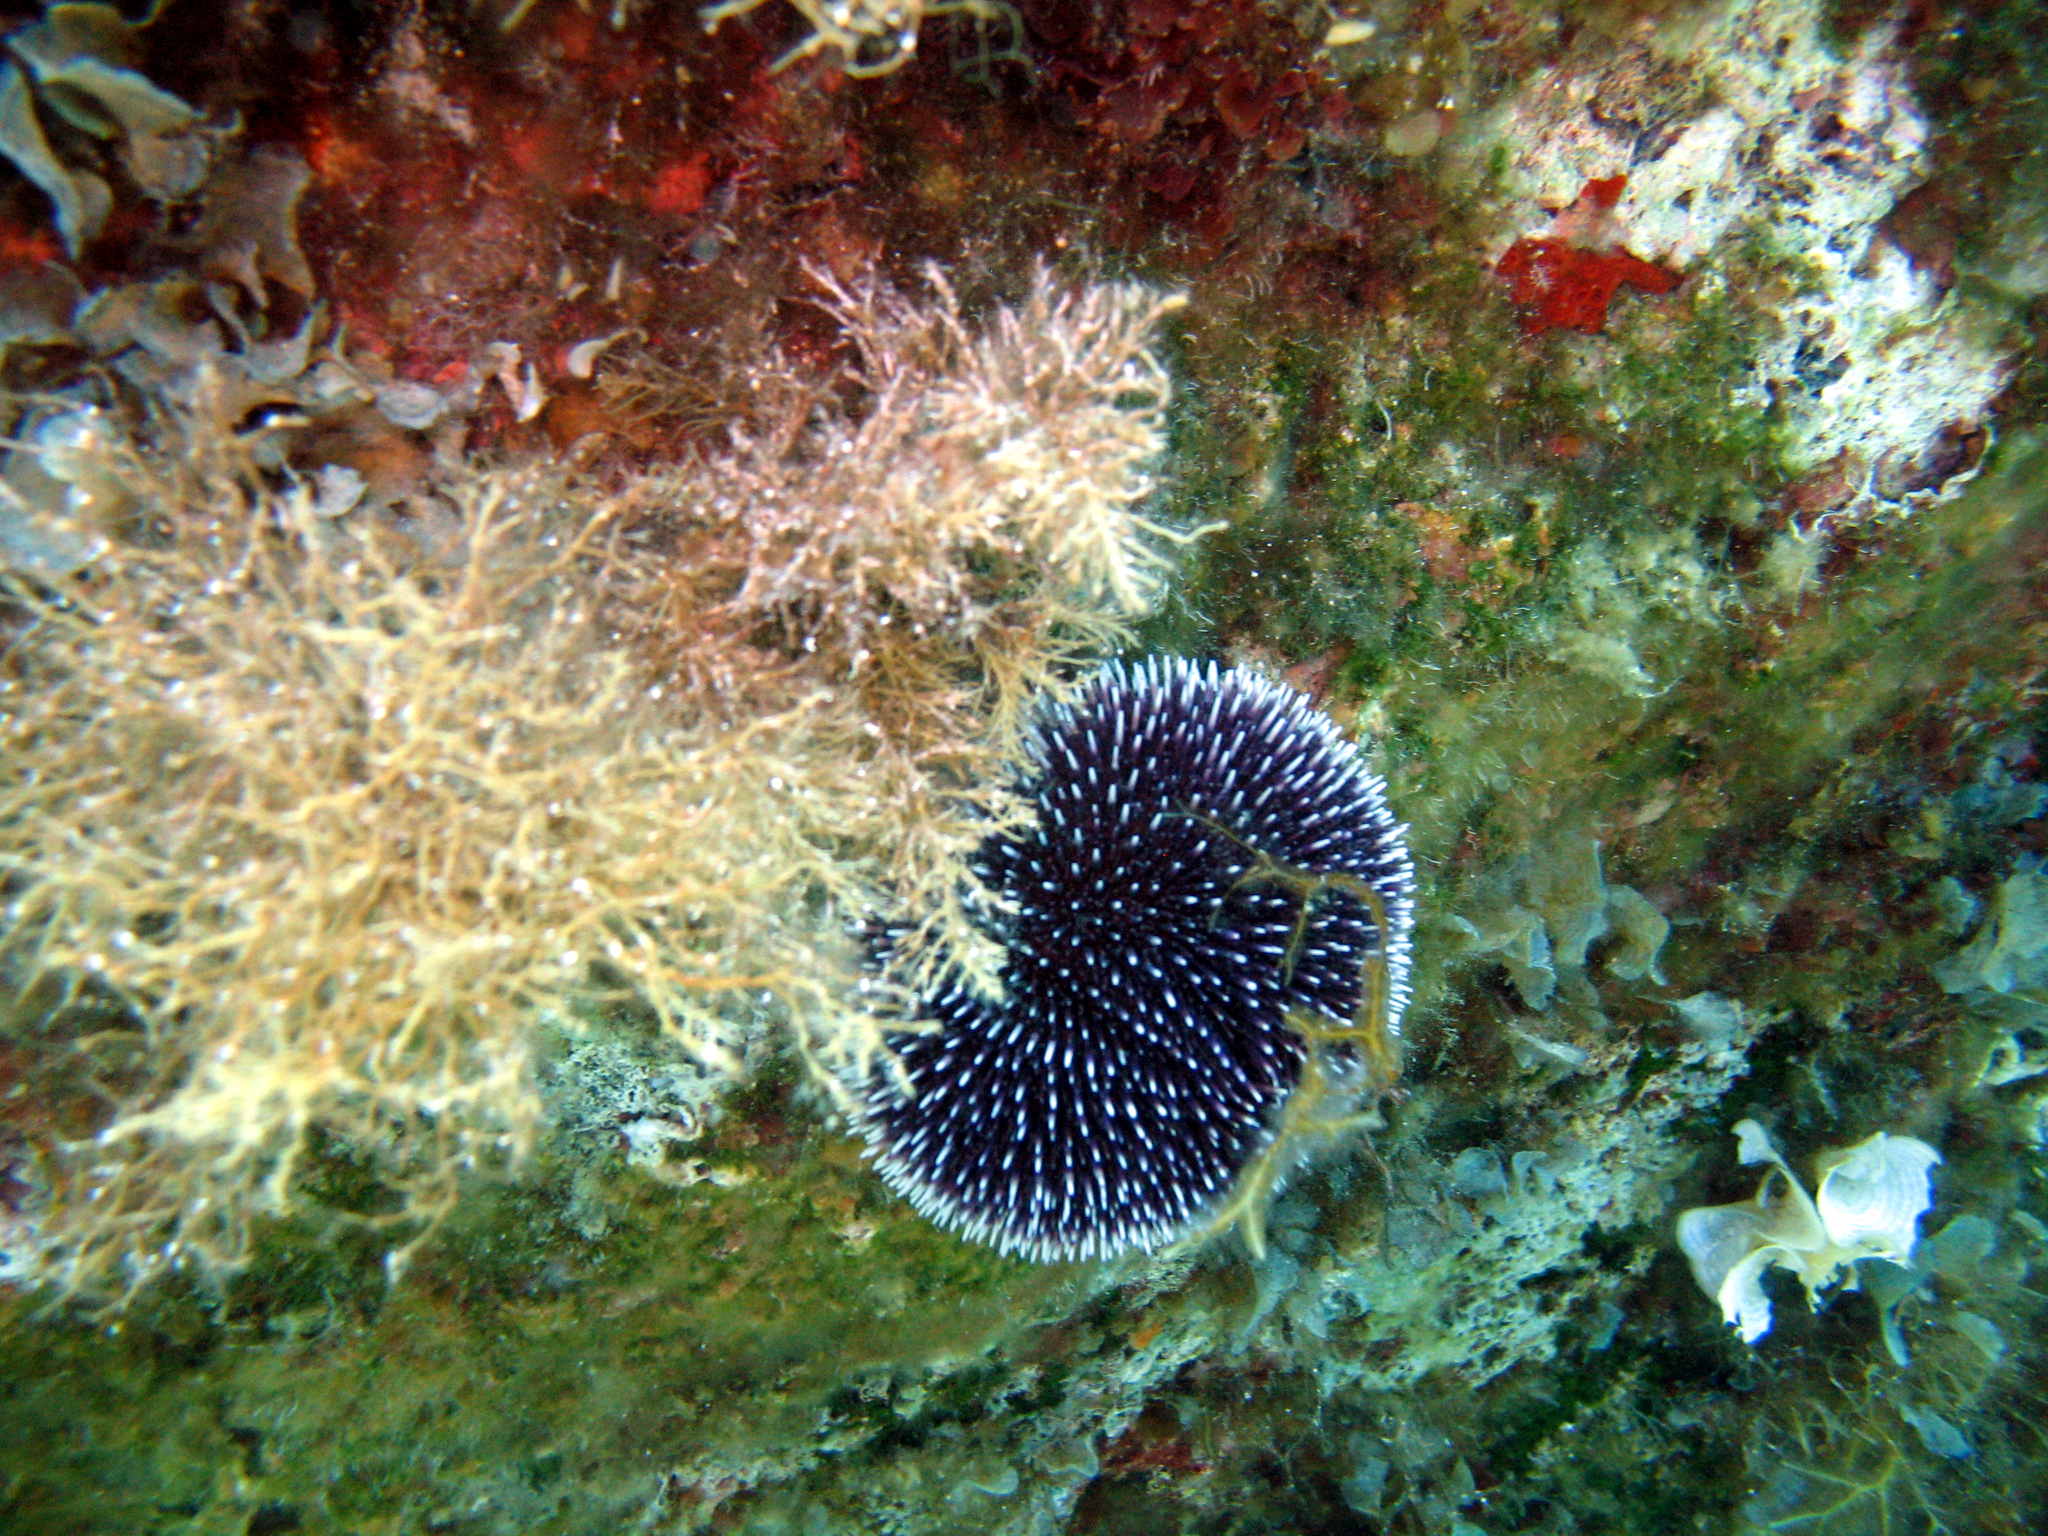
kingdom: Animalia
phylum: Echinodermata
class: Echinoidea
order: Camarodonta
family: Toxopneustidae
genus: Sphaerechinus
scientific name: Sphaerechinus granularis
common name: Violet sea urchin
